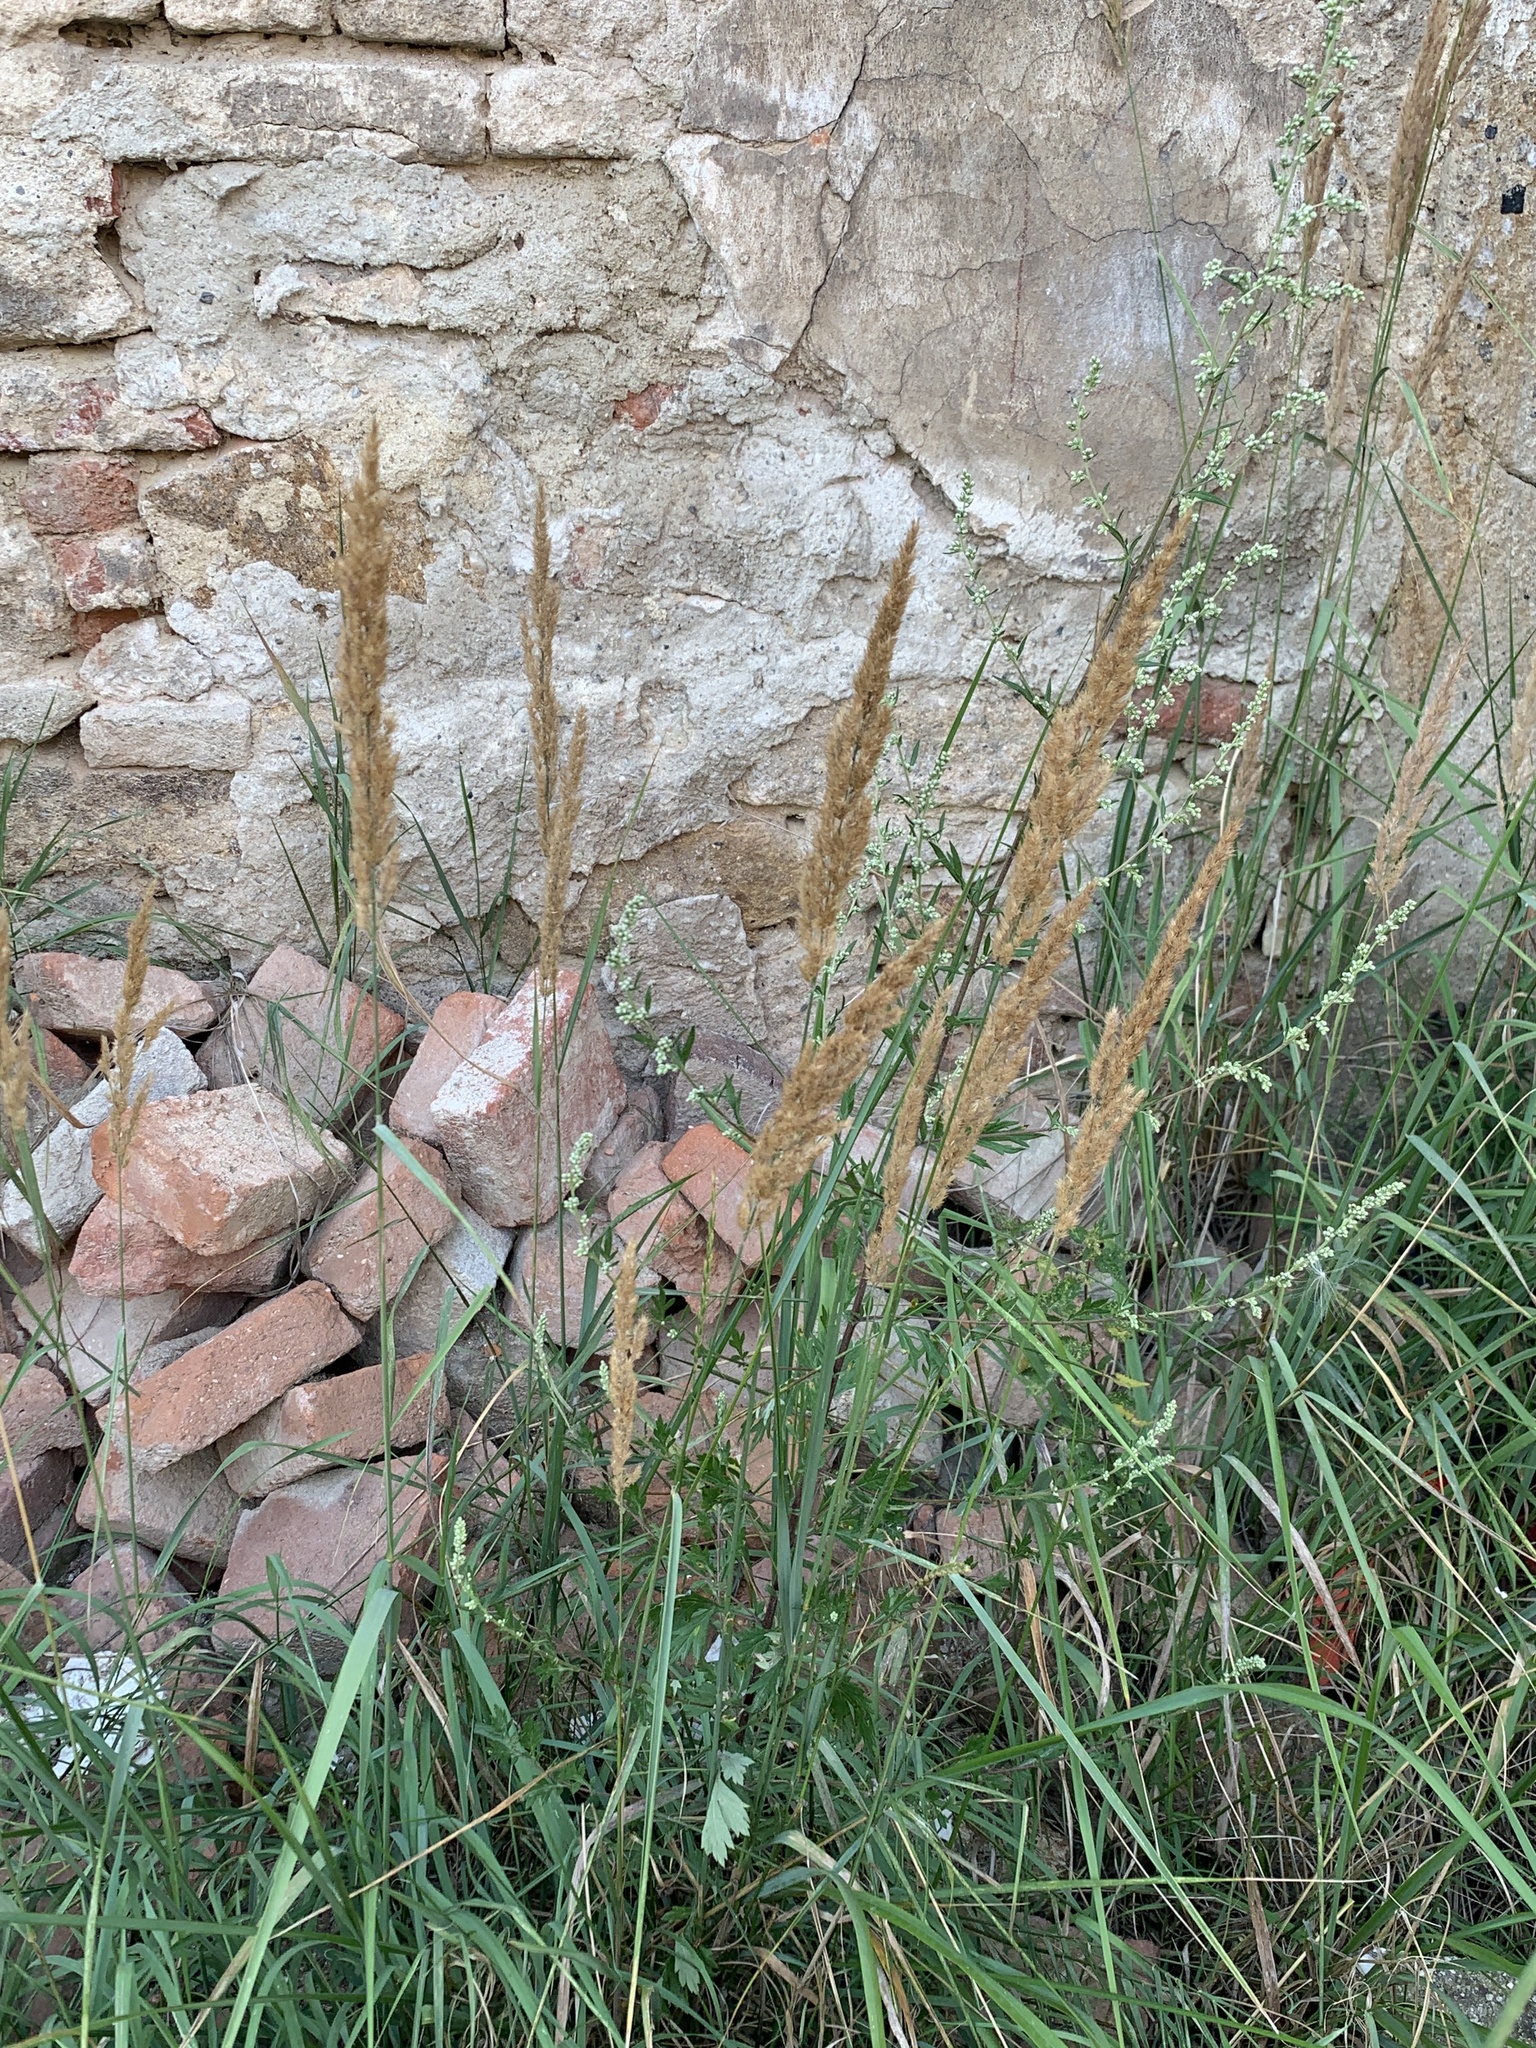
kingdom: Plantae
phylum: Tracheophyta
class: Liliopsida
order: Poales
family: Poaceae
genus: Calamagrostis
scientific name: Calamagrostis epigejos
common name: Wood small-reed
